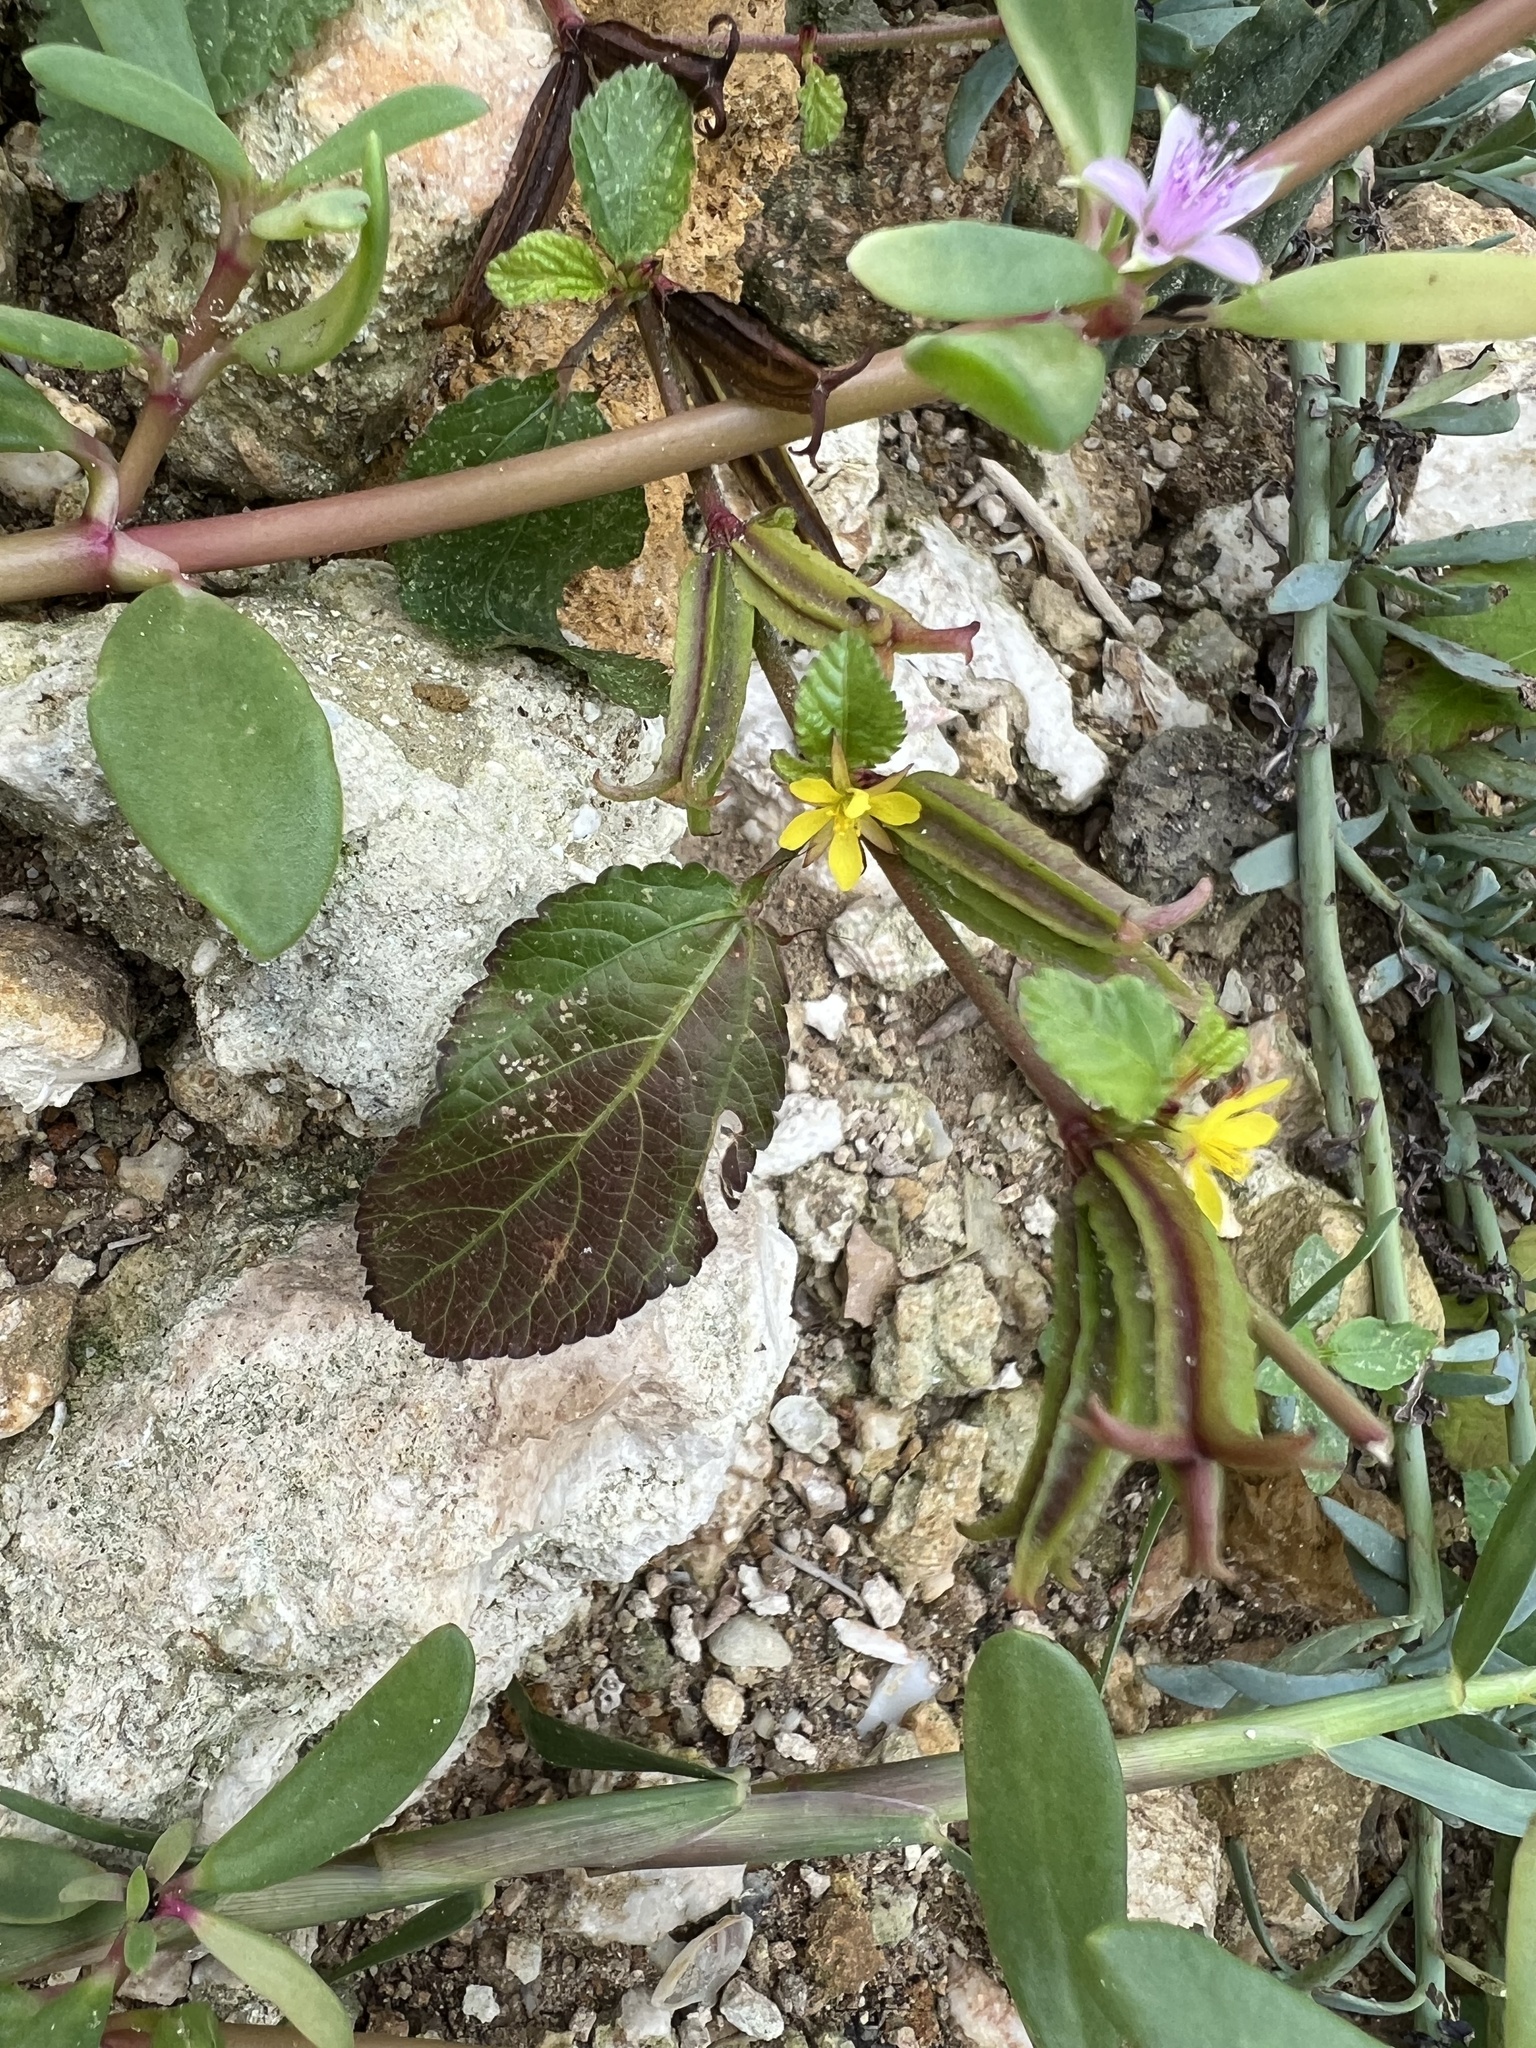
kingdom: Plantae
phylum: Tracheophyta
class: Magnoliopsida
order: Malvales
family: Malvaceae
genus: Corchorus
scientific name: Corchorus aestuans
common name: Jute
